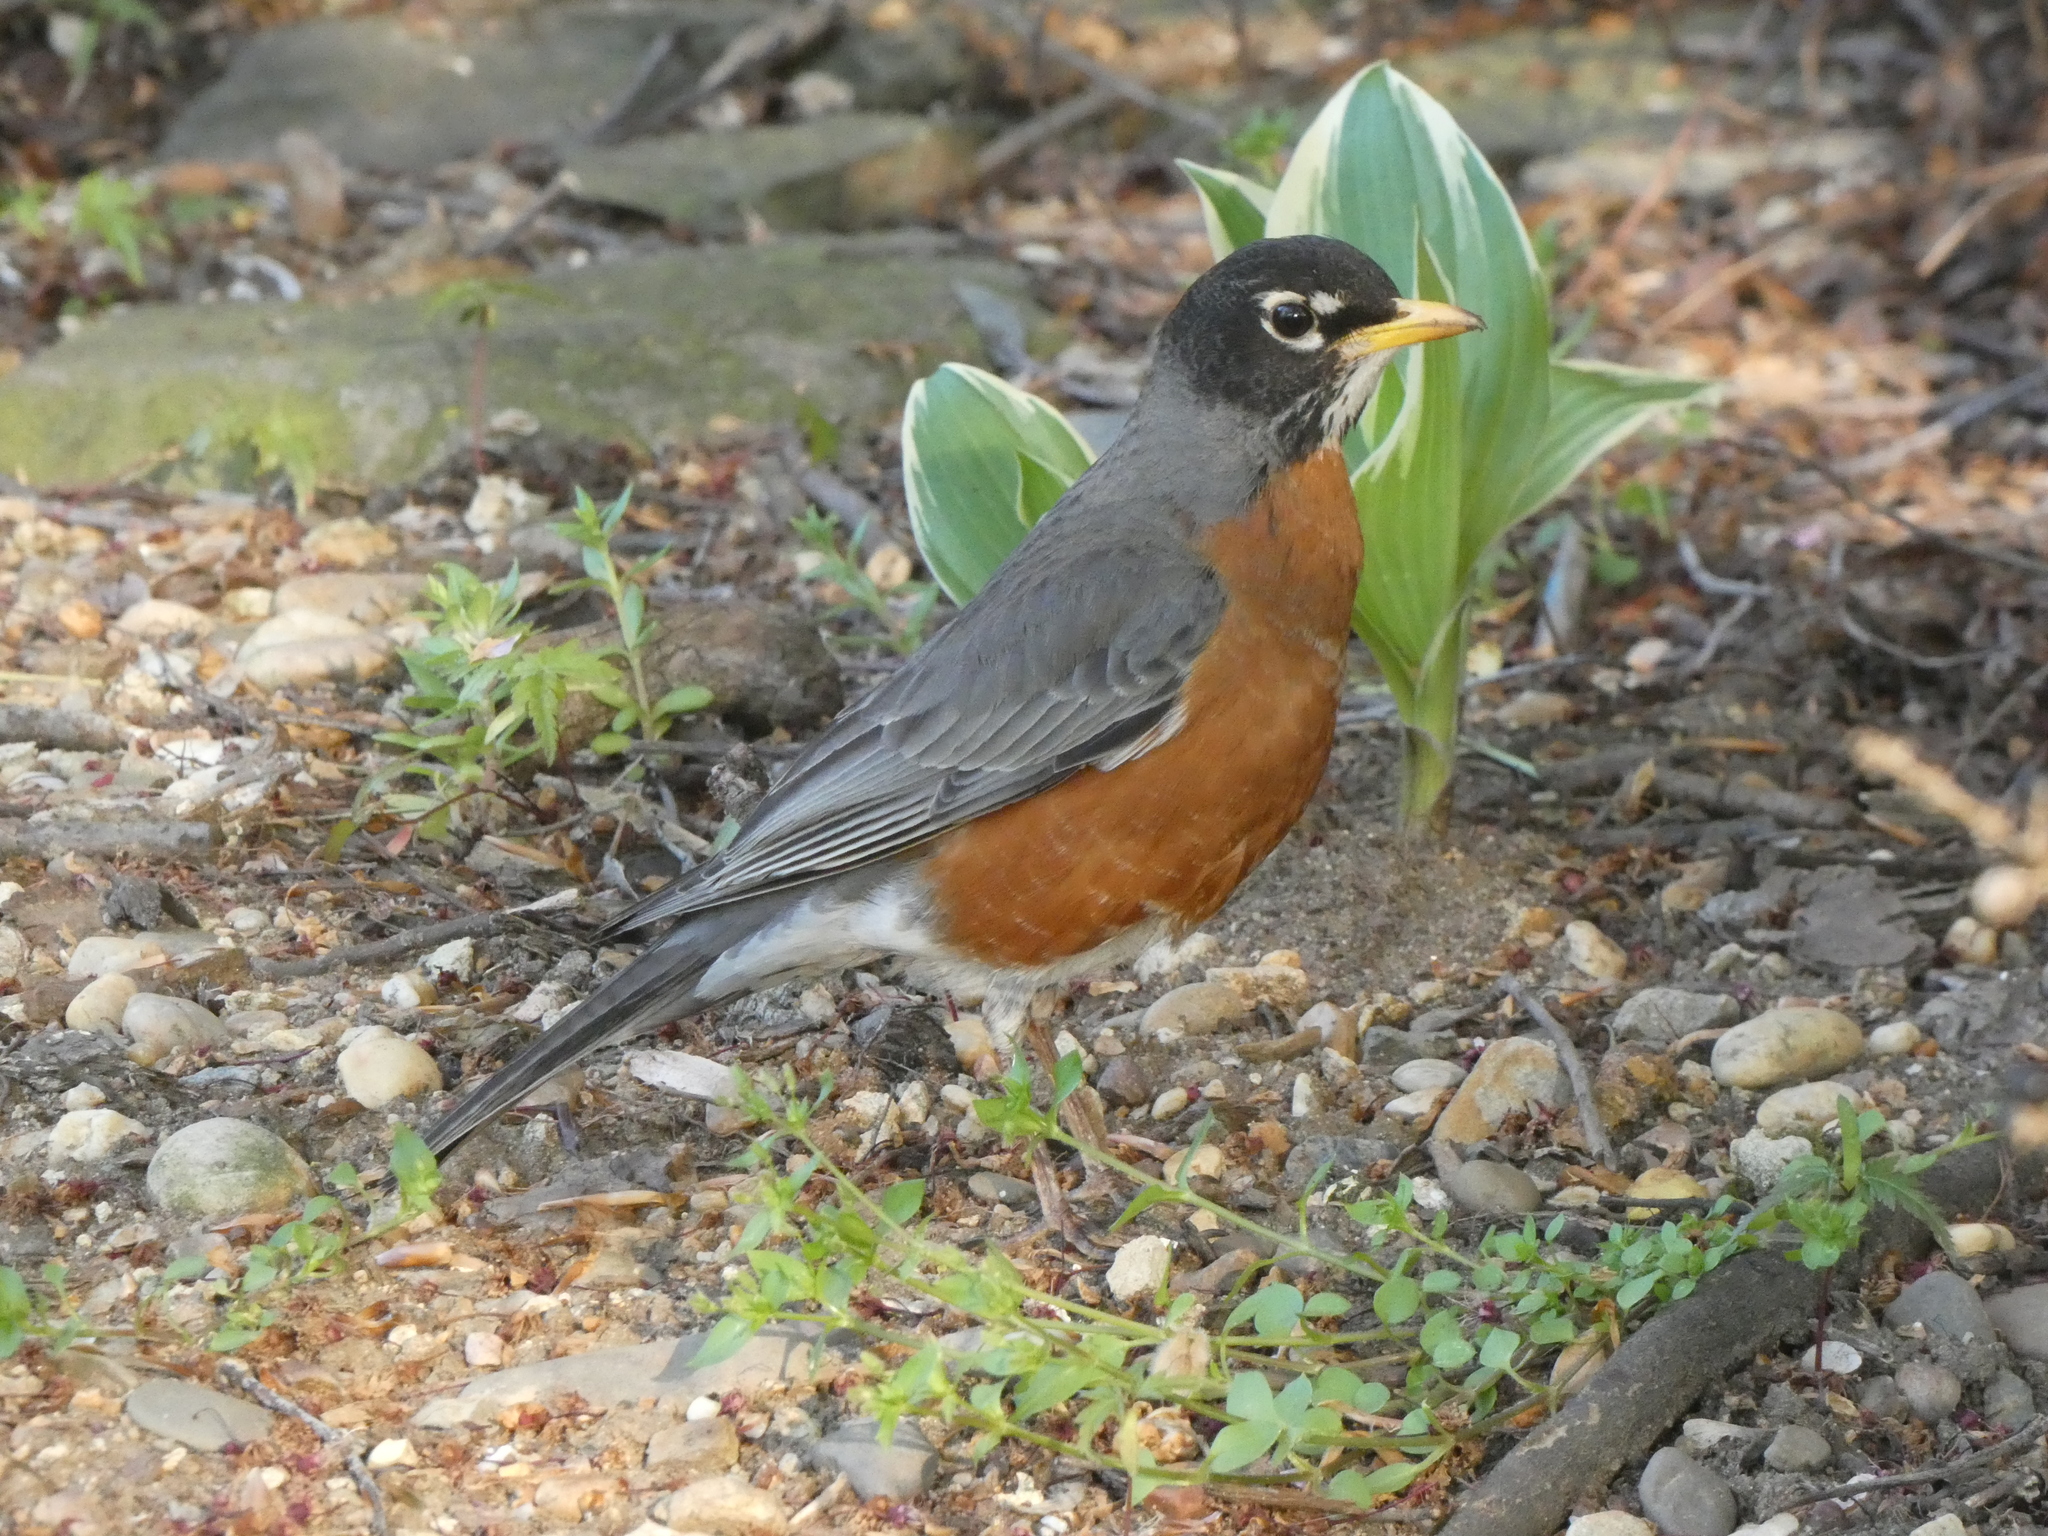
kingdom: Animalia
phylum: Chordata
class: Aves
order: Passeriformes
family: Turdidae
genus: Turdus
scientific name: Turdus migratorius
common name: American robin
